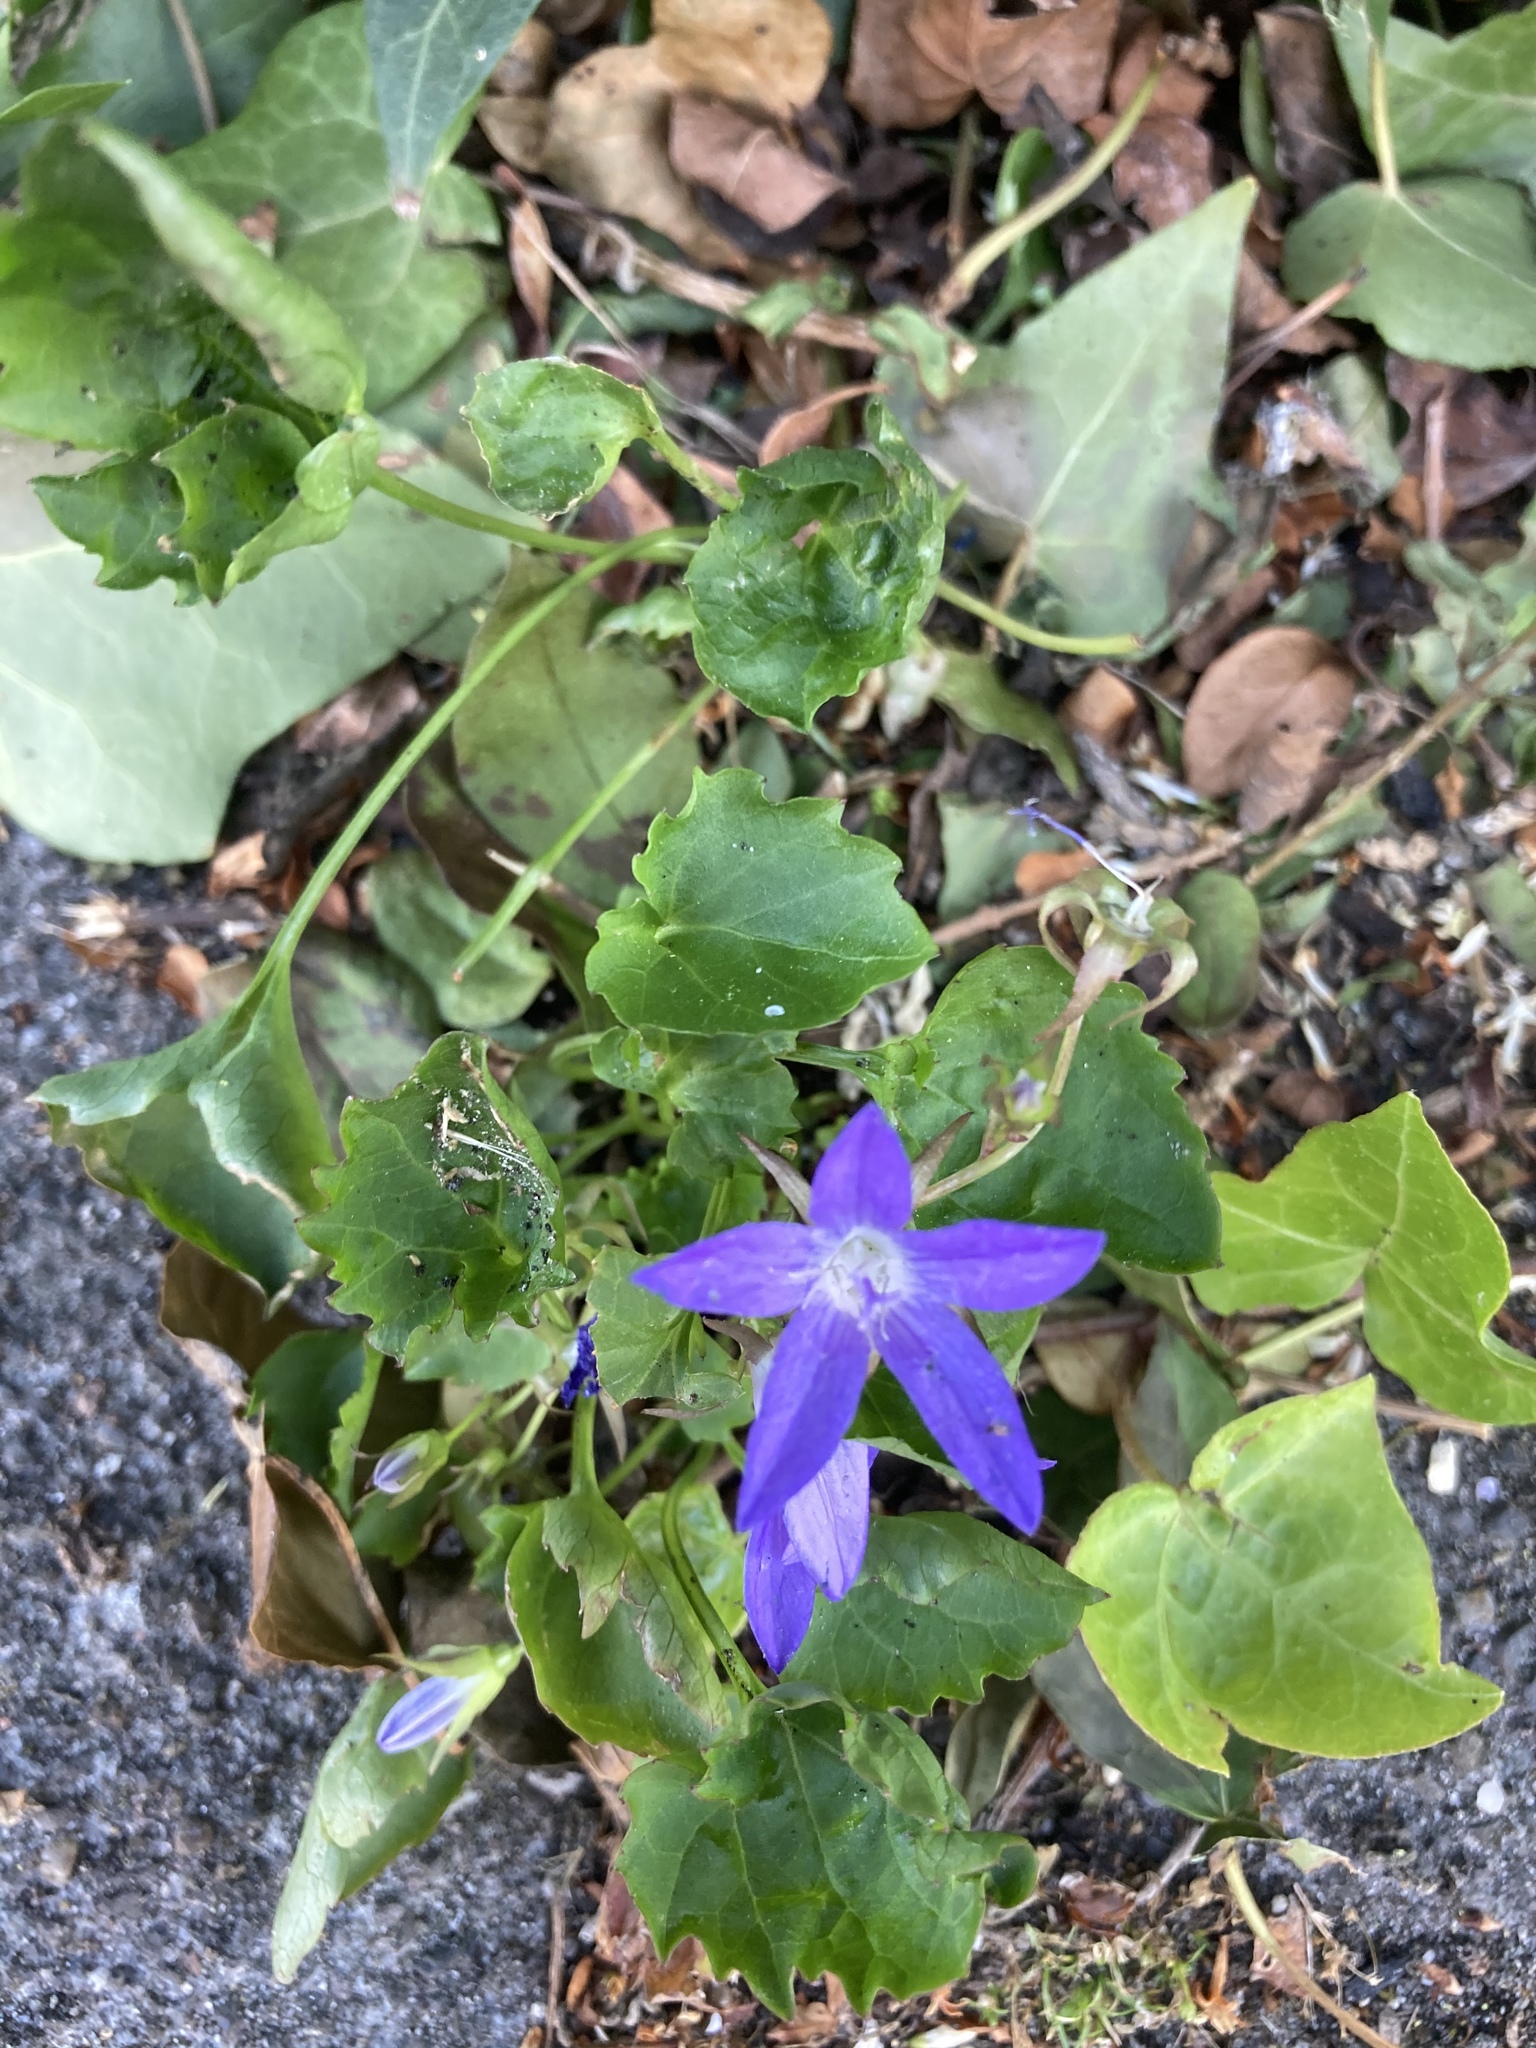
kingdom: Plantae
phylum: Tracheophyta
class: Magnoliopsida
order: Asterales
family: Campanulaceae
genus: Campanula
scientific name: Campanula poscharskyana
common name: Trailing bellflower
